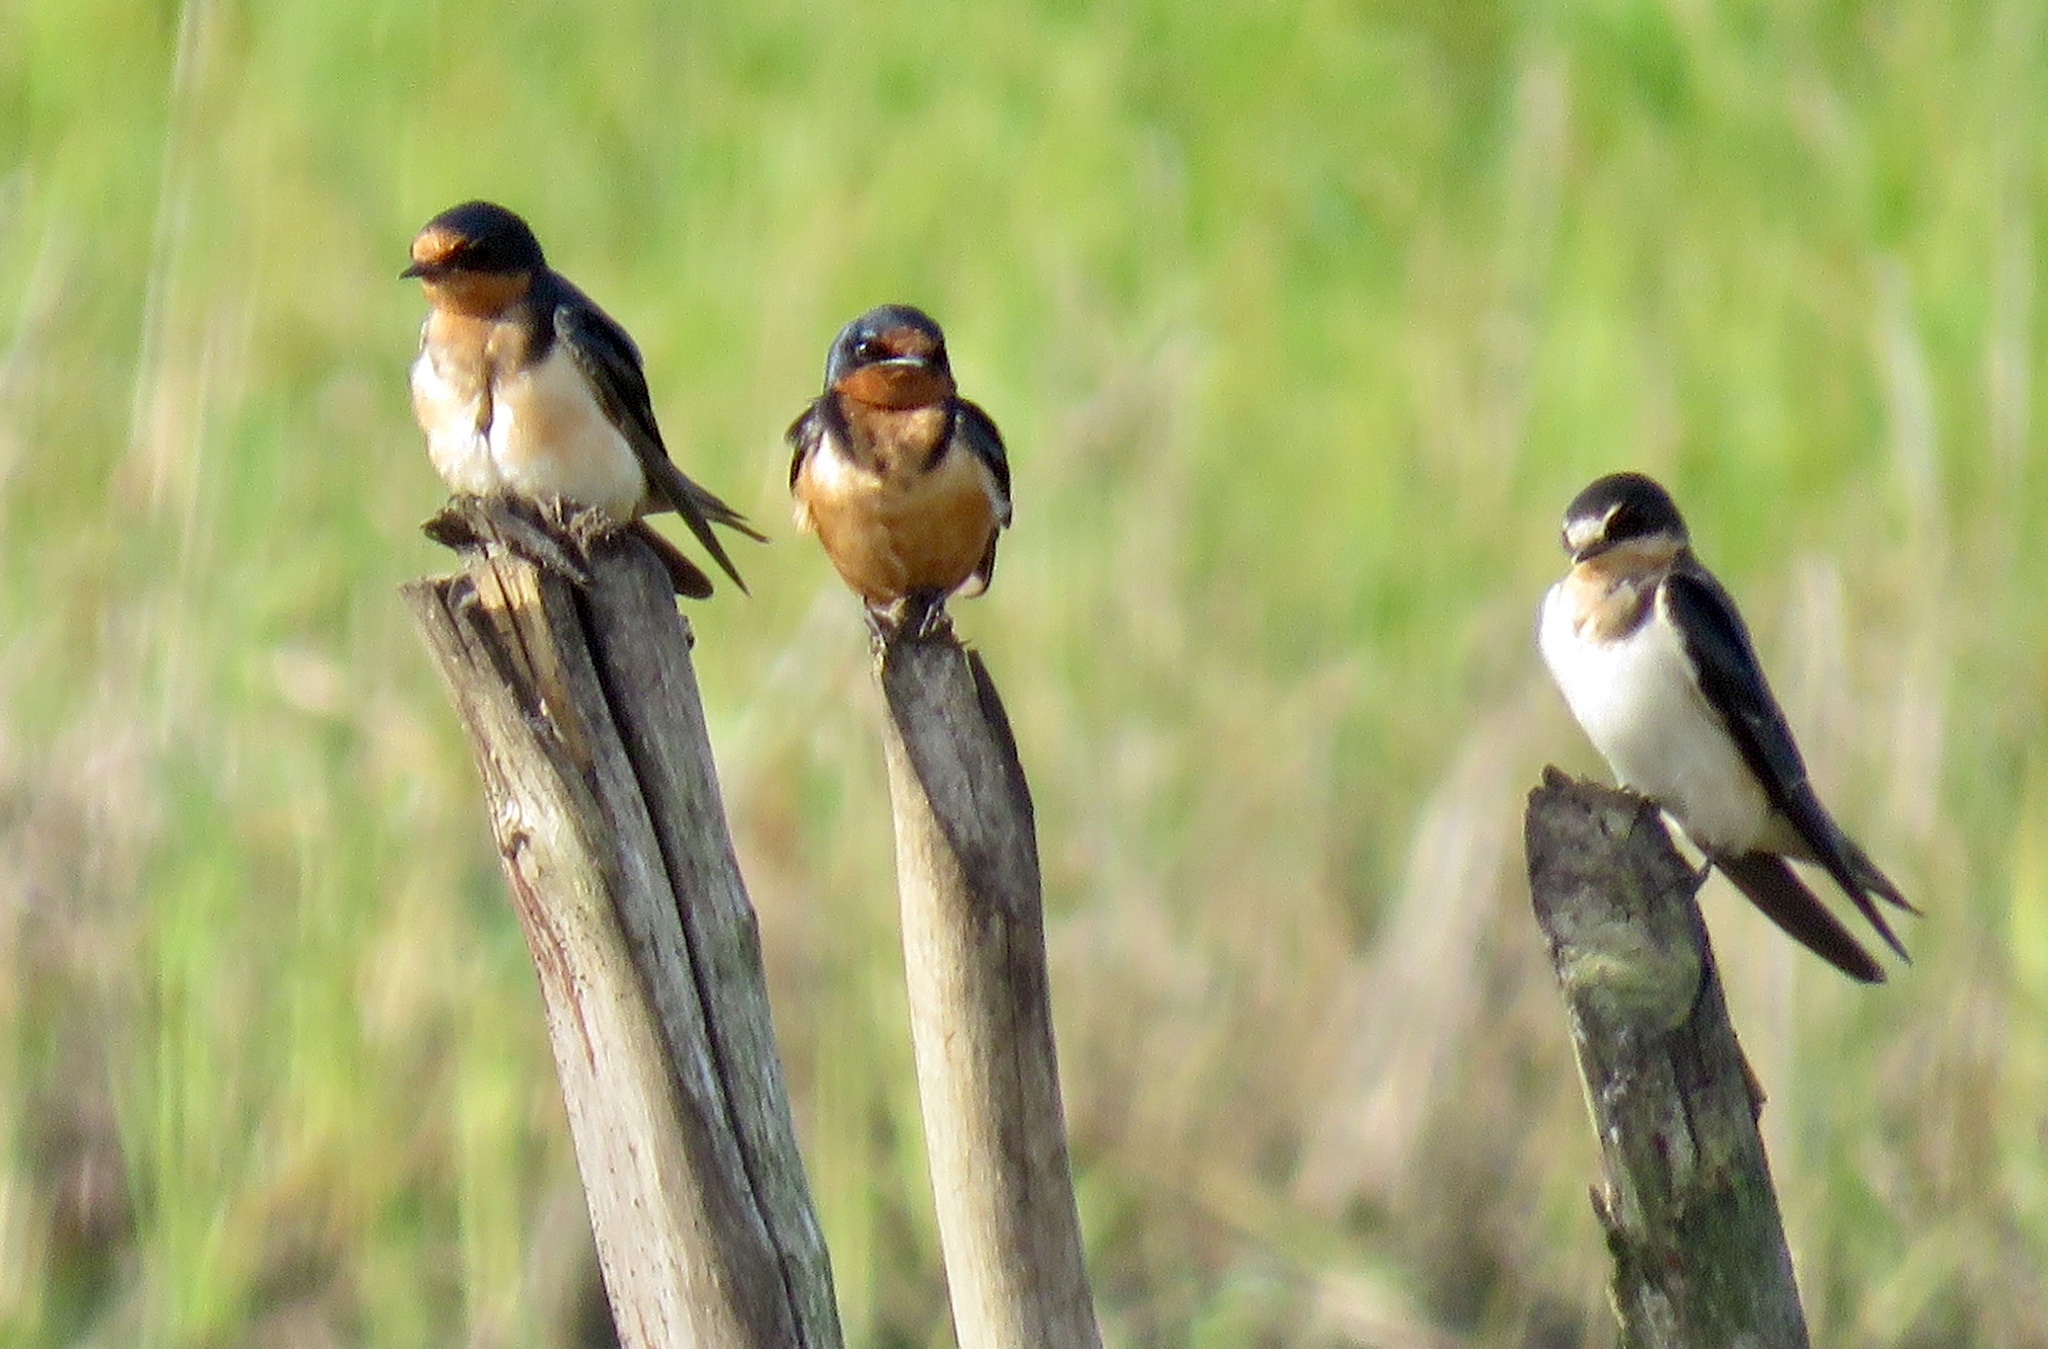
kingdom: Animalia
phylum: Chordata
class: Aves
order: Passeriformes
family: Hirundinidae
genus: Hirundo
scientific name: Hirundo rustica
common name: Barn swallow
